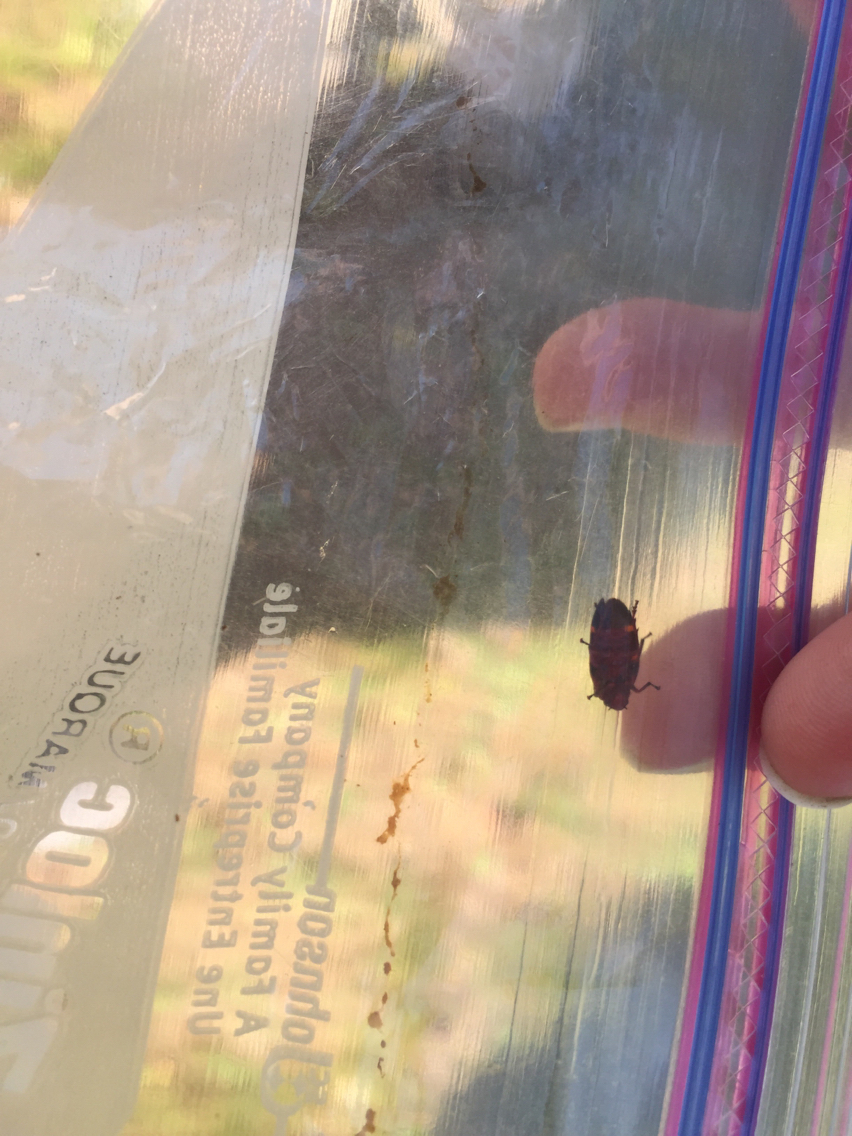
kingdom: Animalia
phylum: Arthropoda
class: Insecta
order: Hemiptera
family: Cercopidae
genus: Prosapia
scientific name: Prosapia bicincta
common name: Twolined spittlebug
